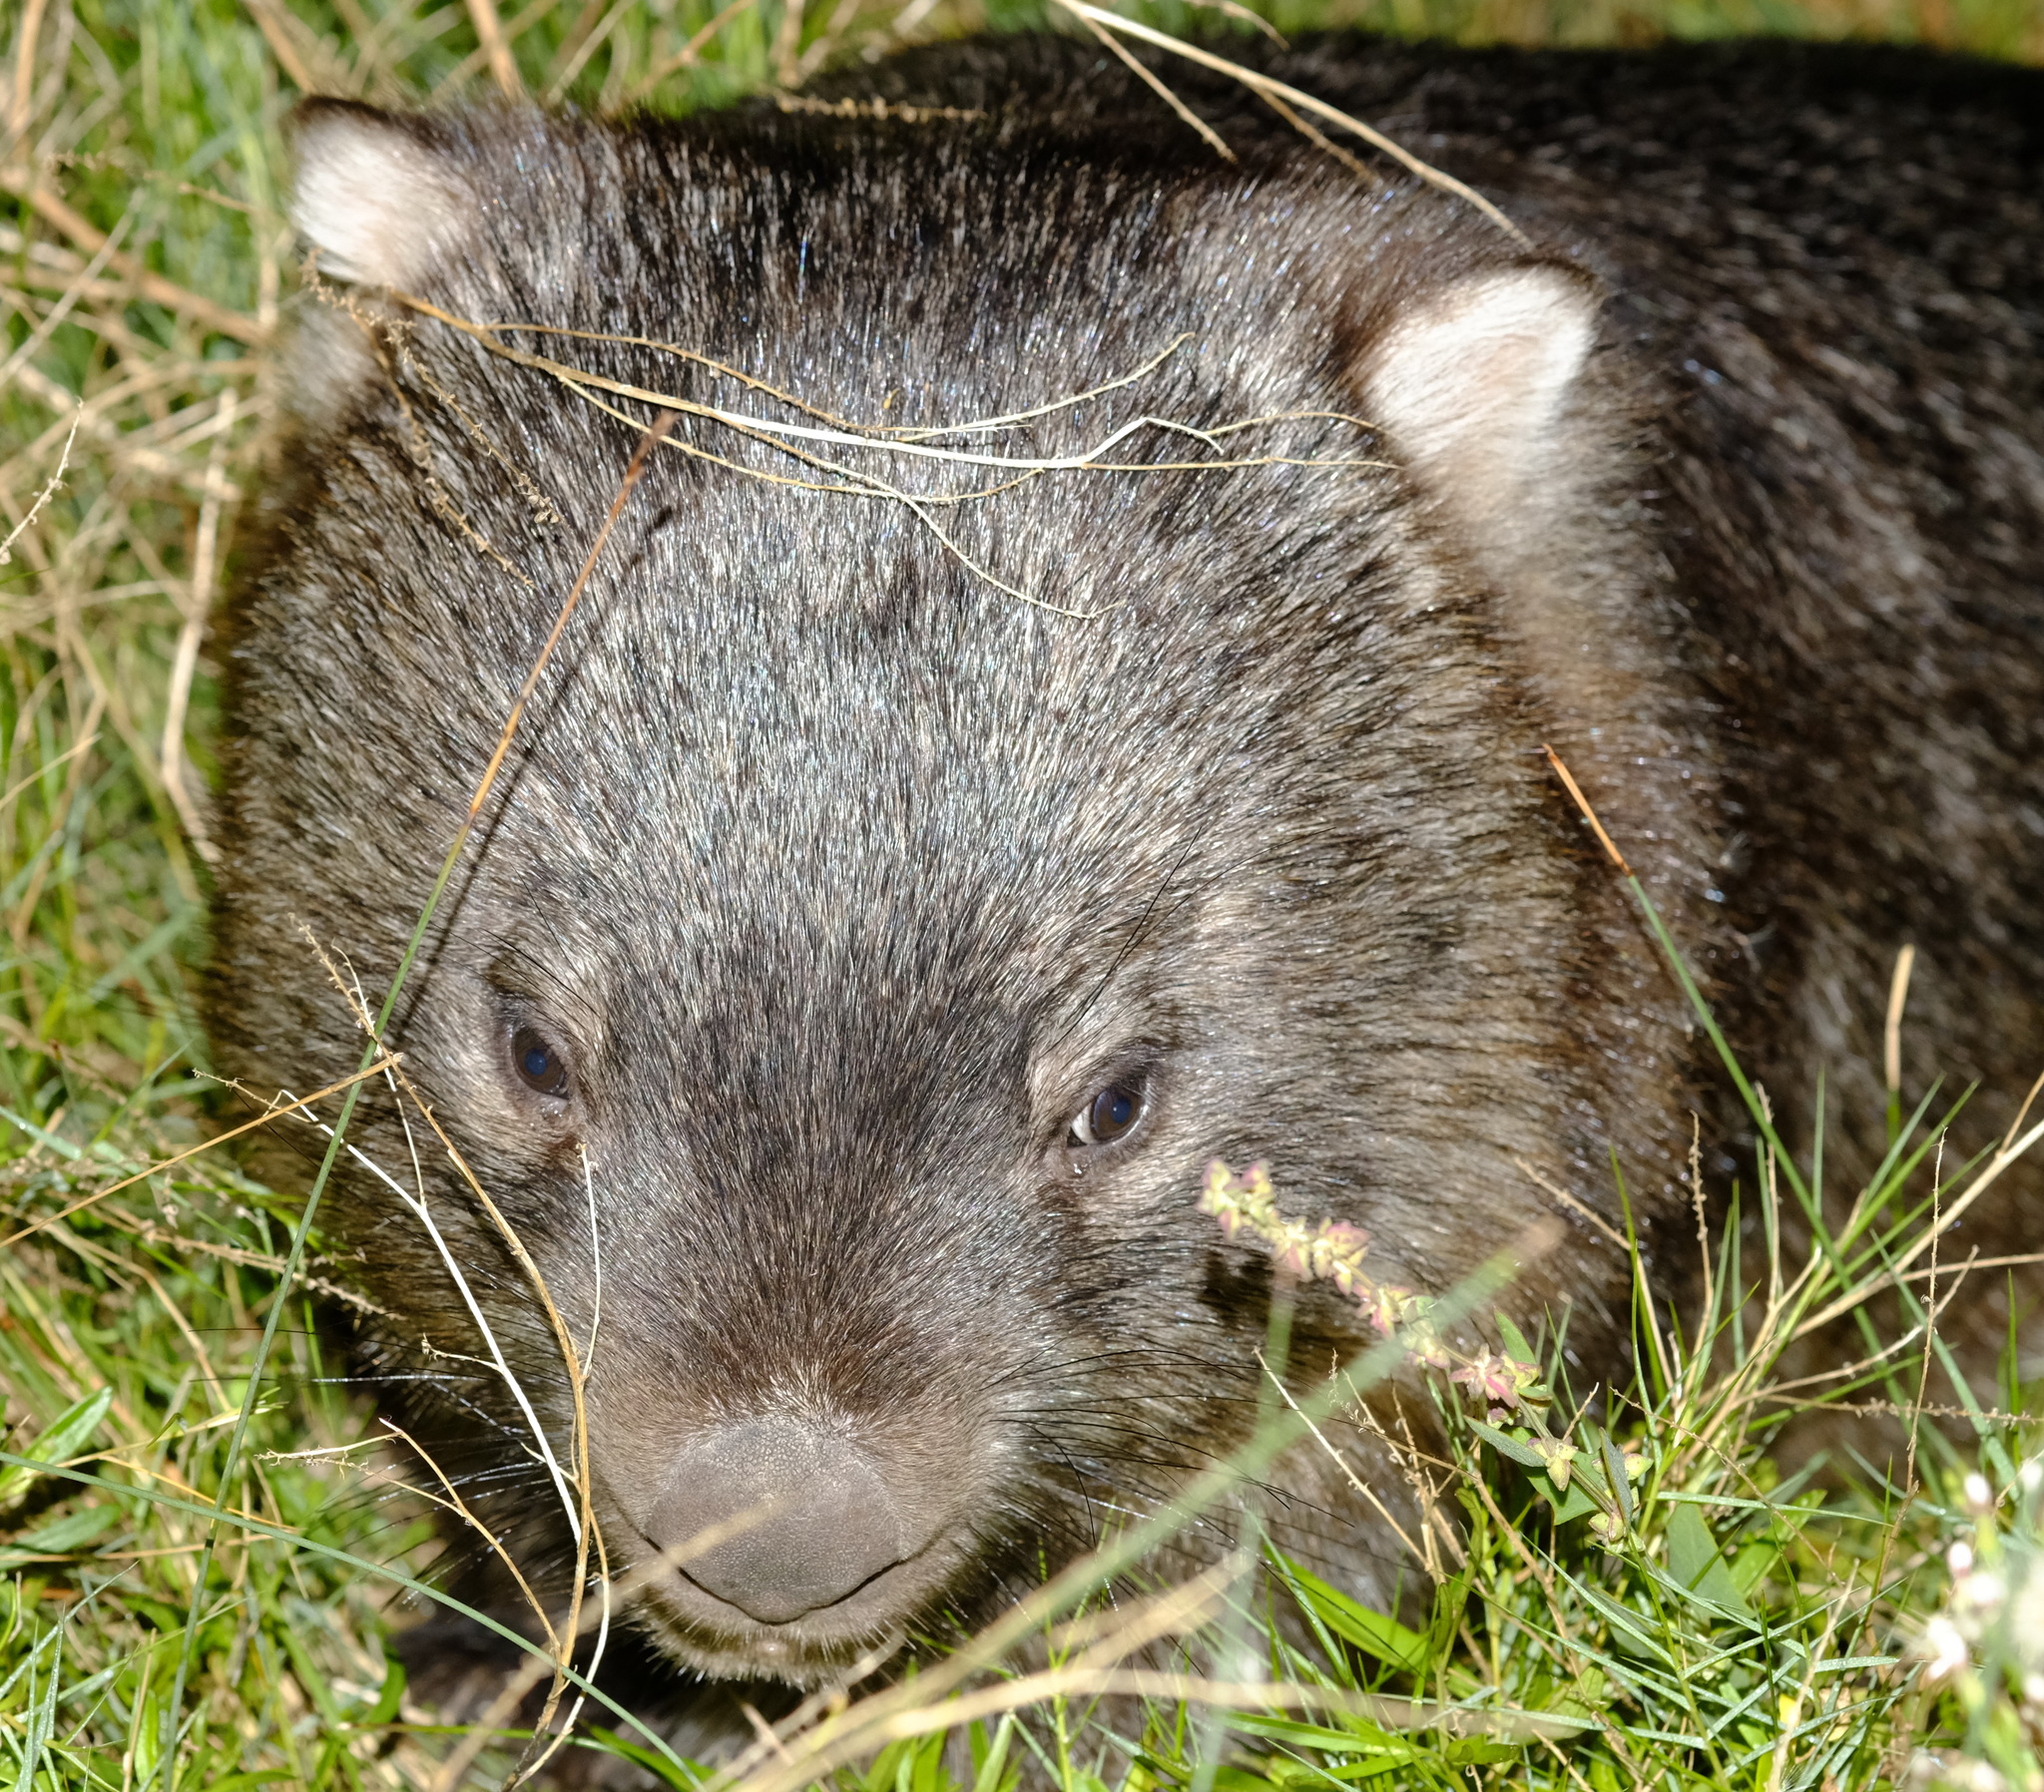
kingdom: Animalia
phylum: Chordata
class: Mammalia
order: Diprotodontia
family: Vombatidae
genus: Vombatus
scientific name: Vombatus ursinus
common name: Common wombat
